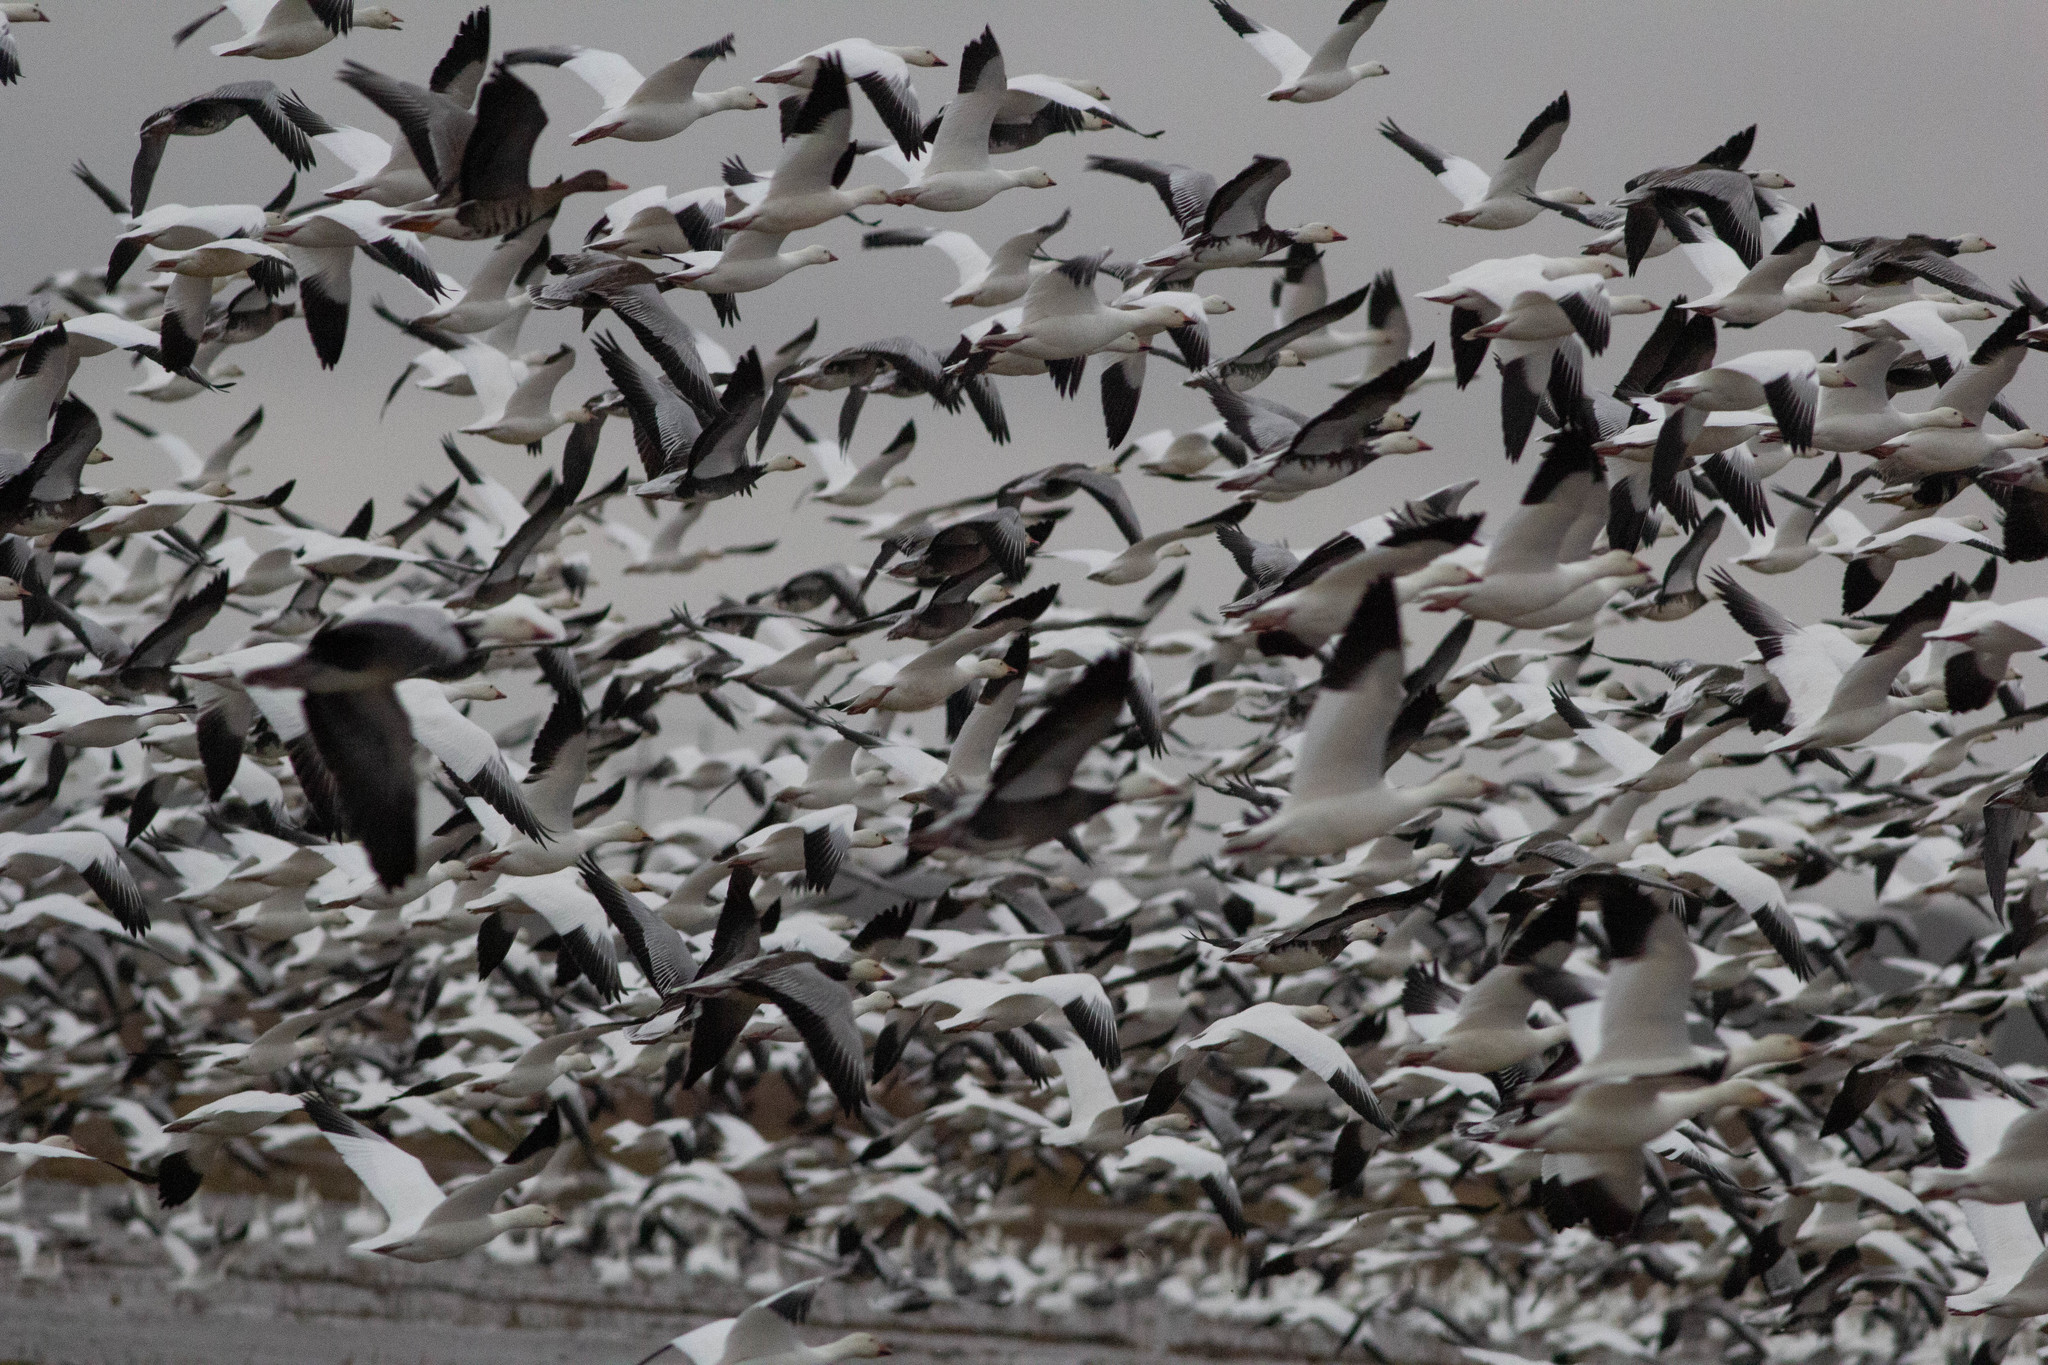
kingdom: Animalia
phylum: Chordata
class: Aves
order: Anseriformes
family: Anatidae
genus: Anser
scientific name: Anser caerulescens
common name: Snow goose
